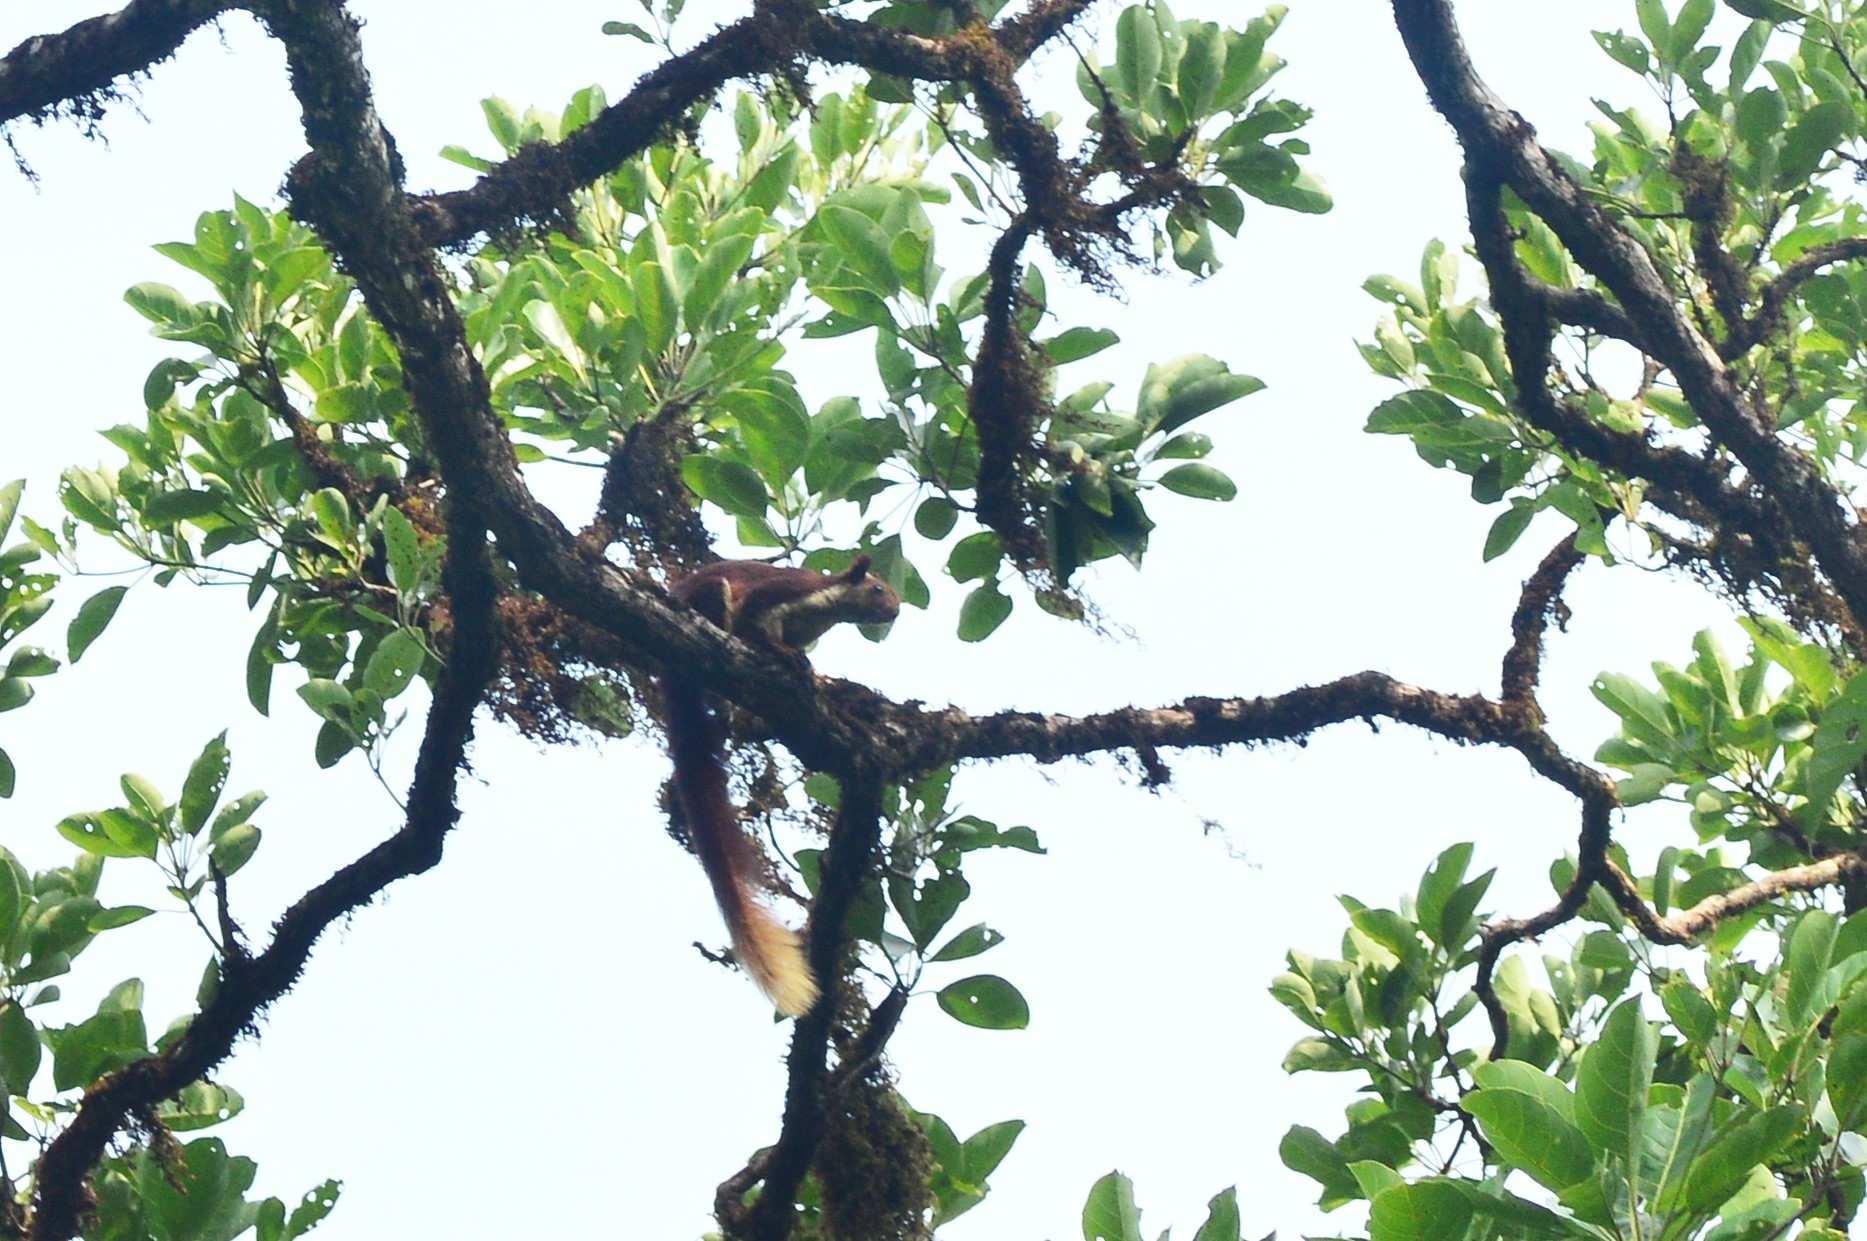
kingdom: Animalia
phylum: Chordata
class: Mammalia
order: Rodentia
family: Sciuridae
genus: Ratufa
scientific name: Ratufa indica
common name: Indian giant squirrel
